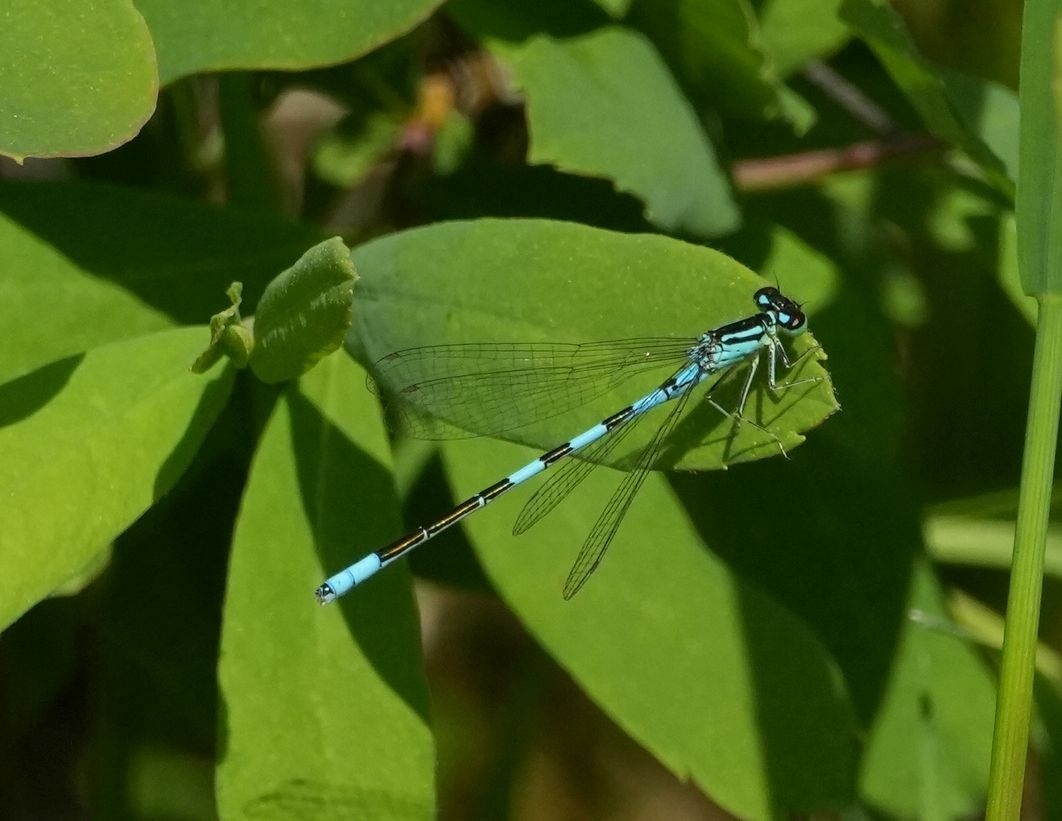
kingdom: Animalia
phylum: Arthropoda
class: Insecta
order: Odonata
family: Coenagrionidae
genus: Coenagrion
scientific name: Coenagrion resolutum
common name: Taiga bluet
